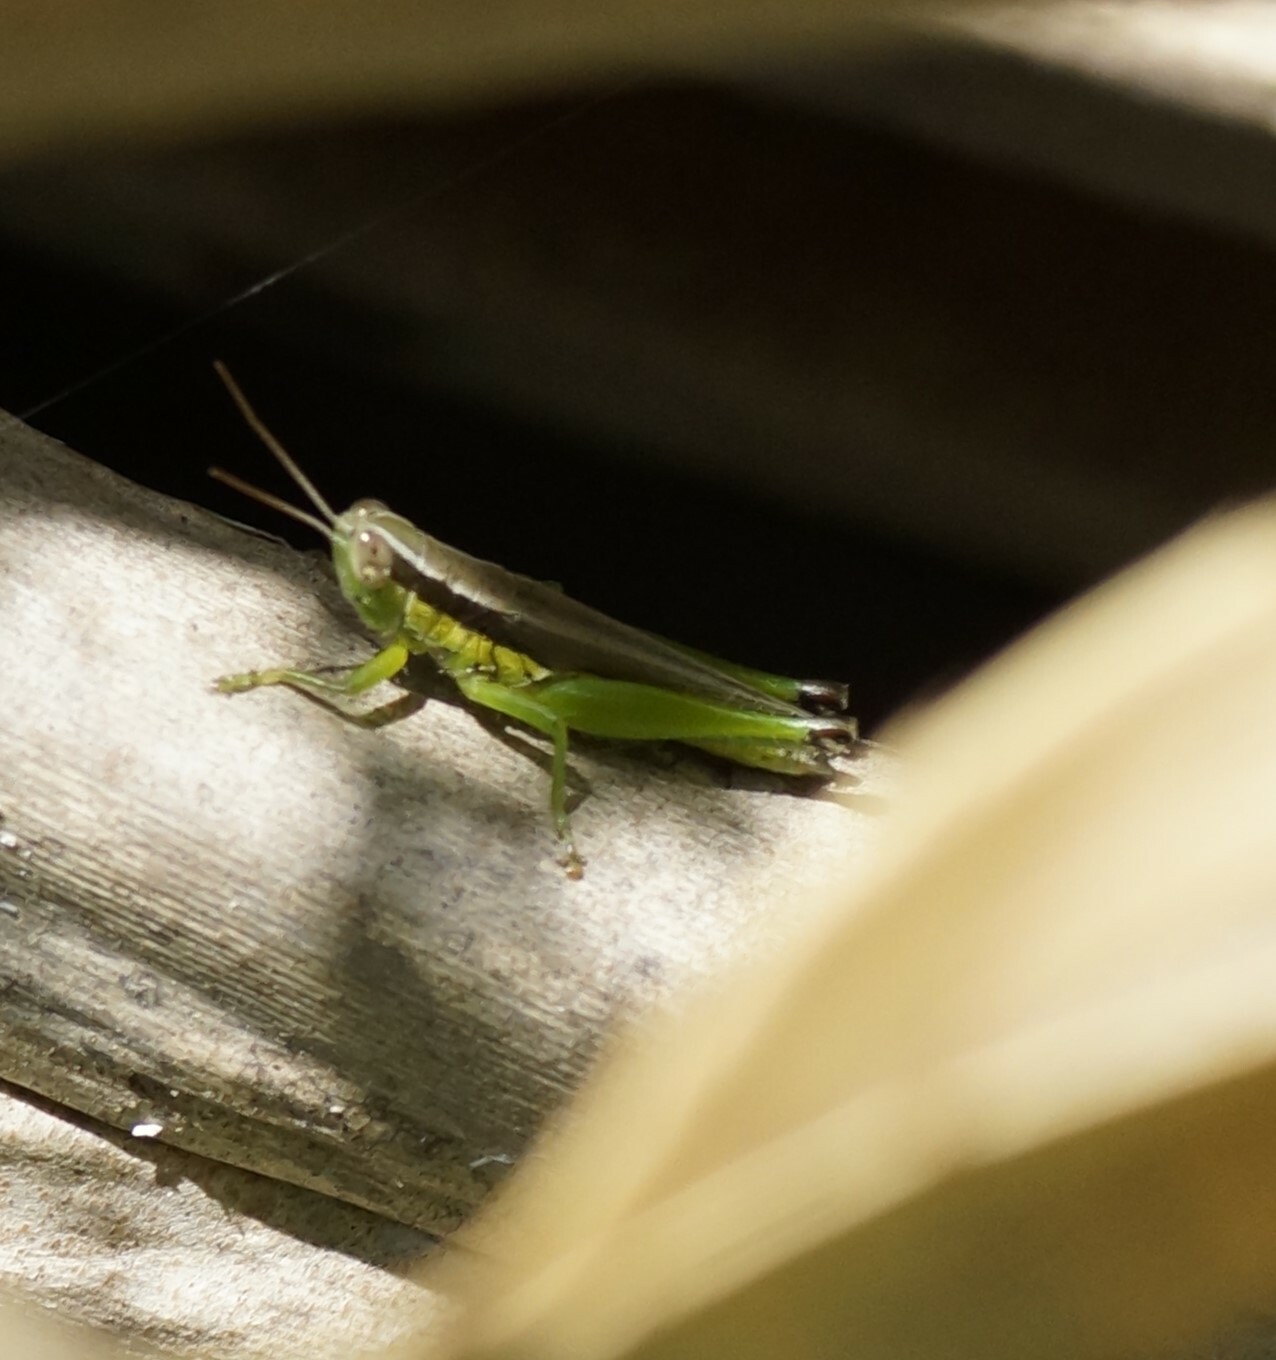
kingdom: Animalia
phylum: Arthropoda
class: Insecta
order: Orthoptera
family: Acrididae
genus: Oxya
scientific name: Oxya japonica
